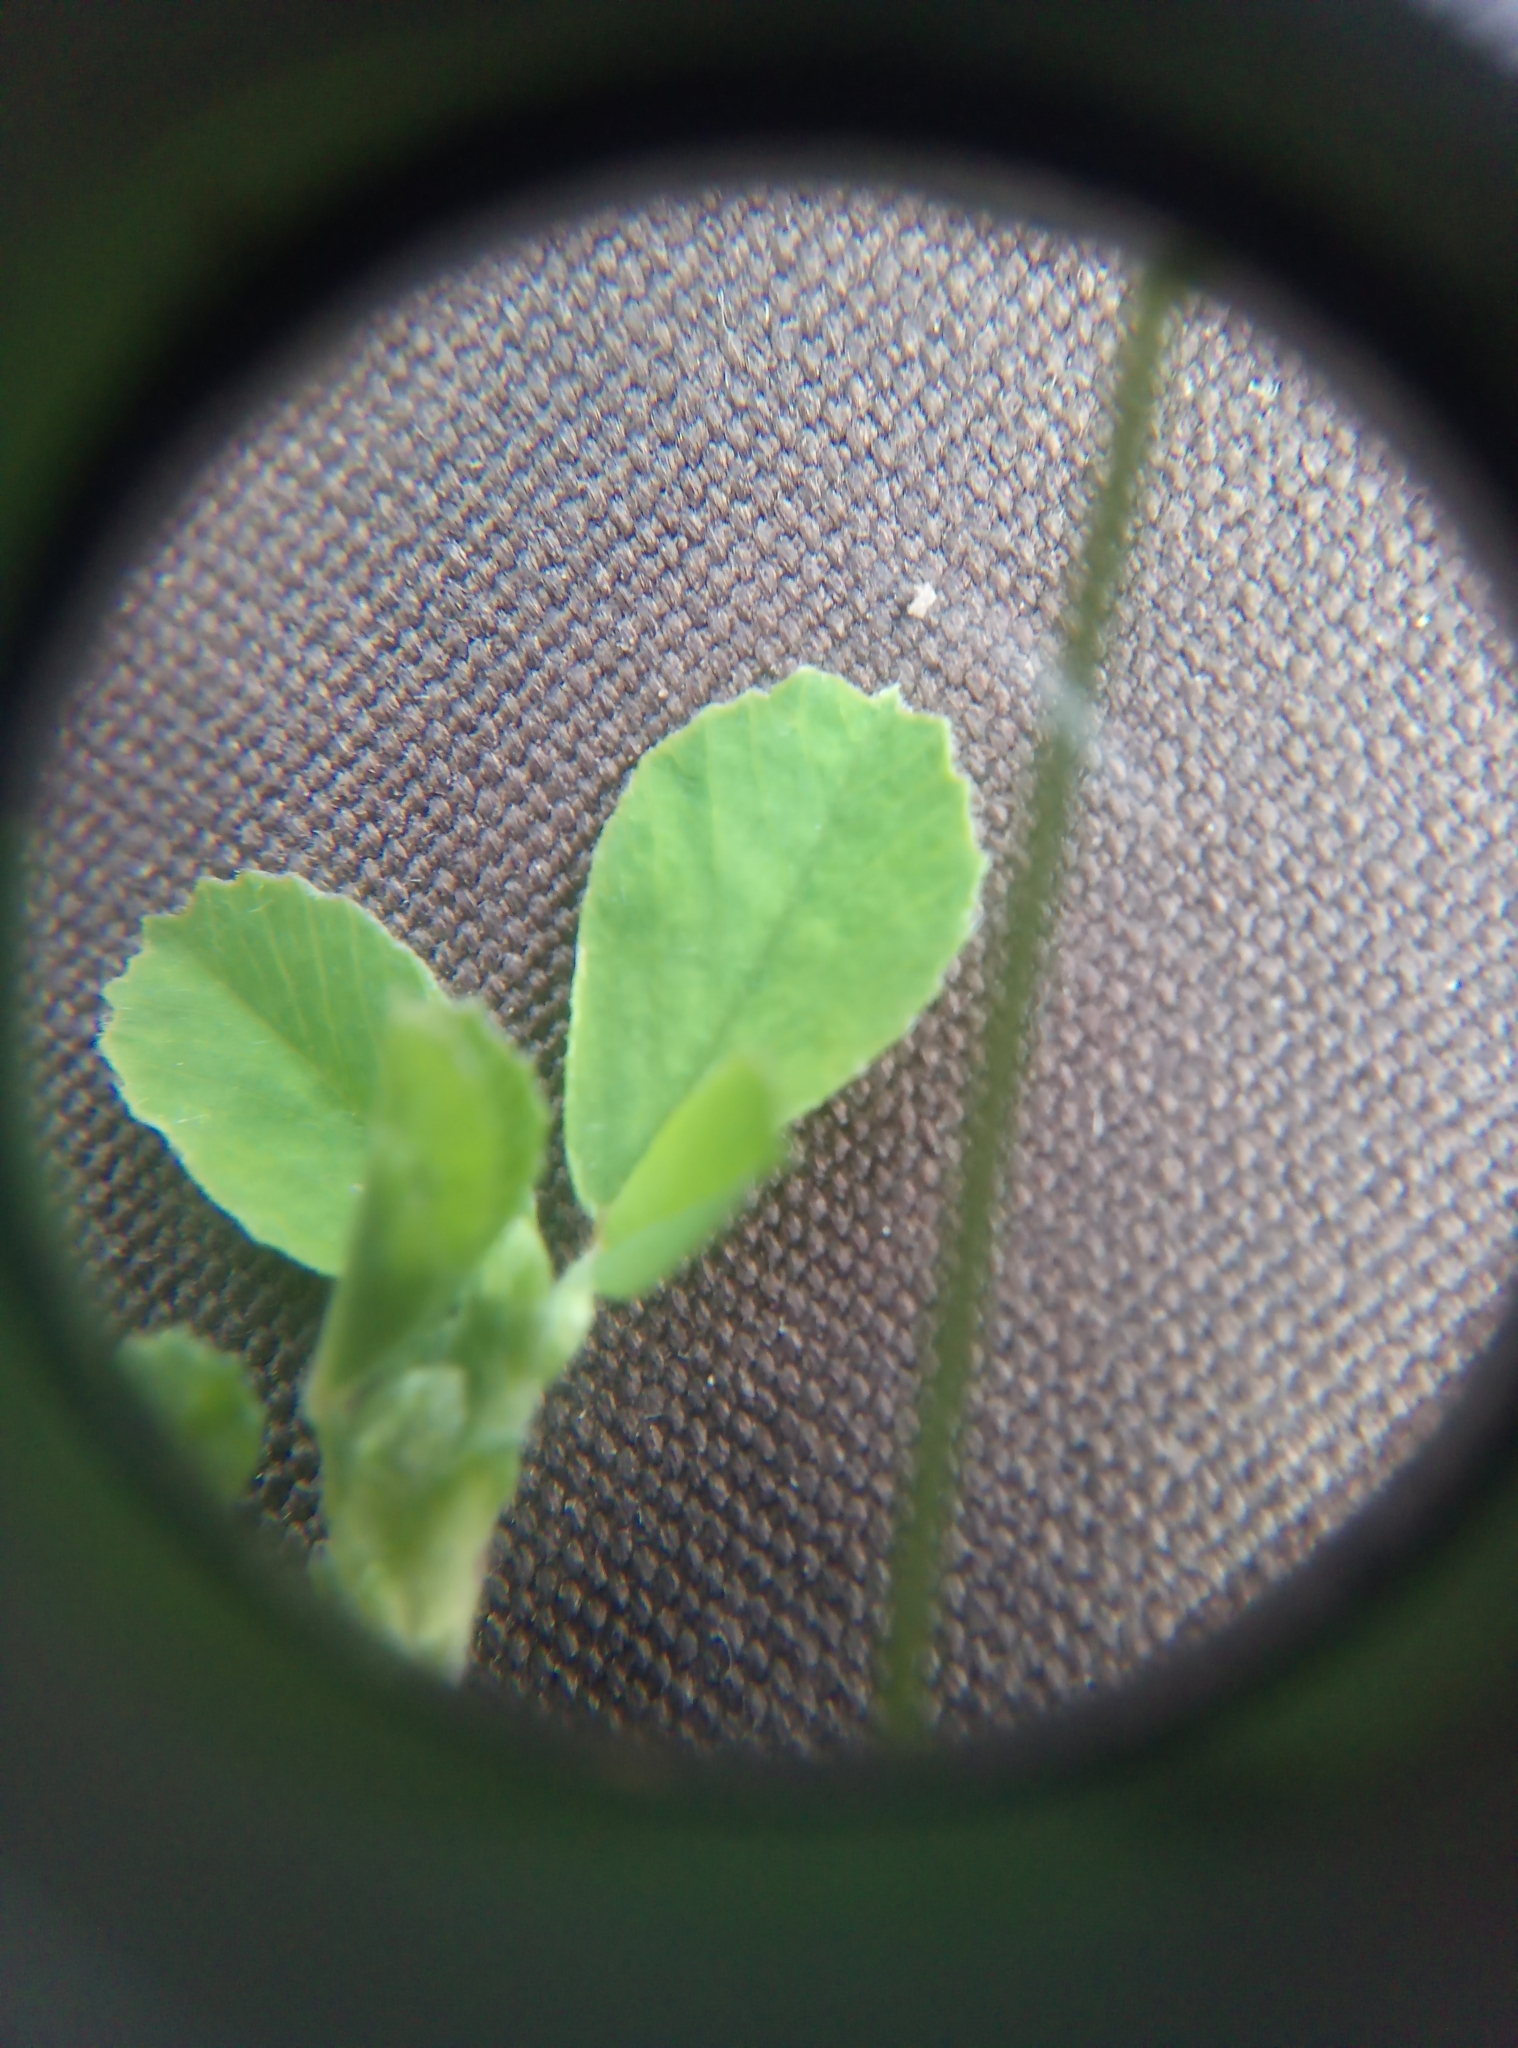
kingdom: Plantae
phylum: Tracheophyta
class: Magnoliopsida
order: Fabales
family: Fabaceae
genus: Medicago
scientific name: Medicago lupulina
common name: Black medick
